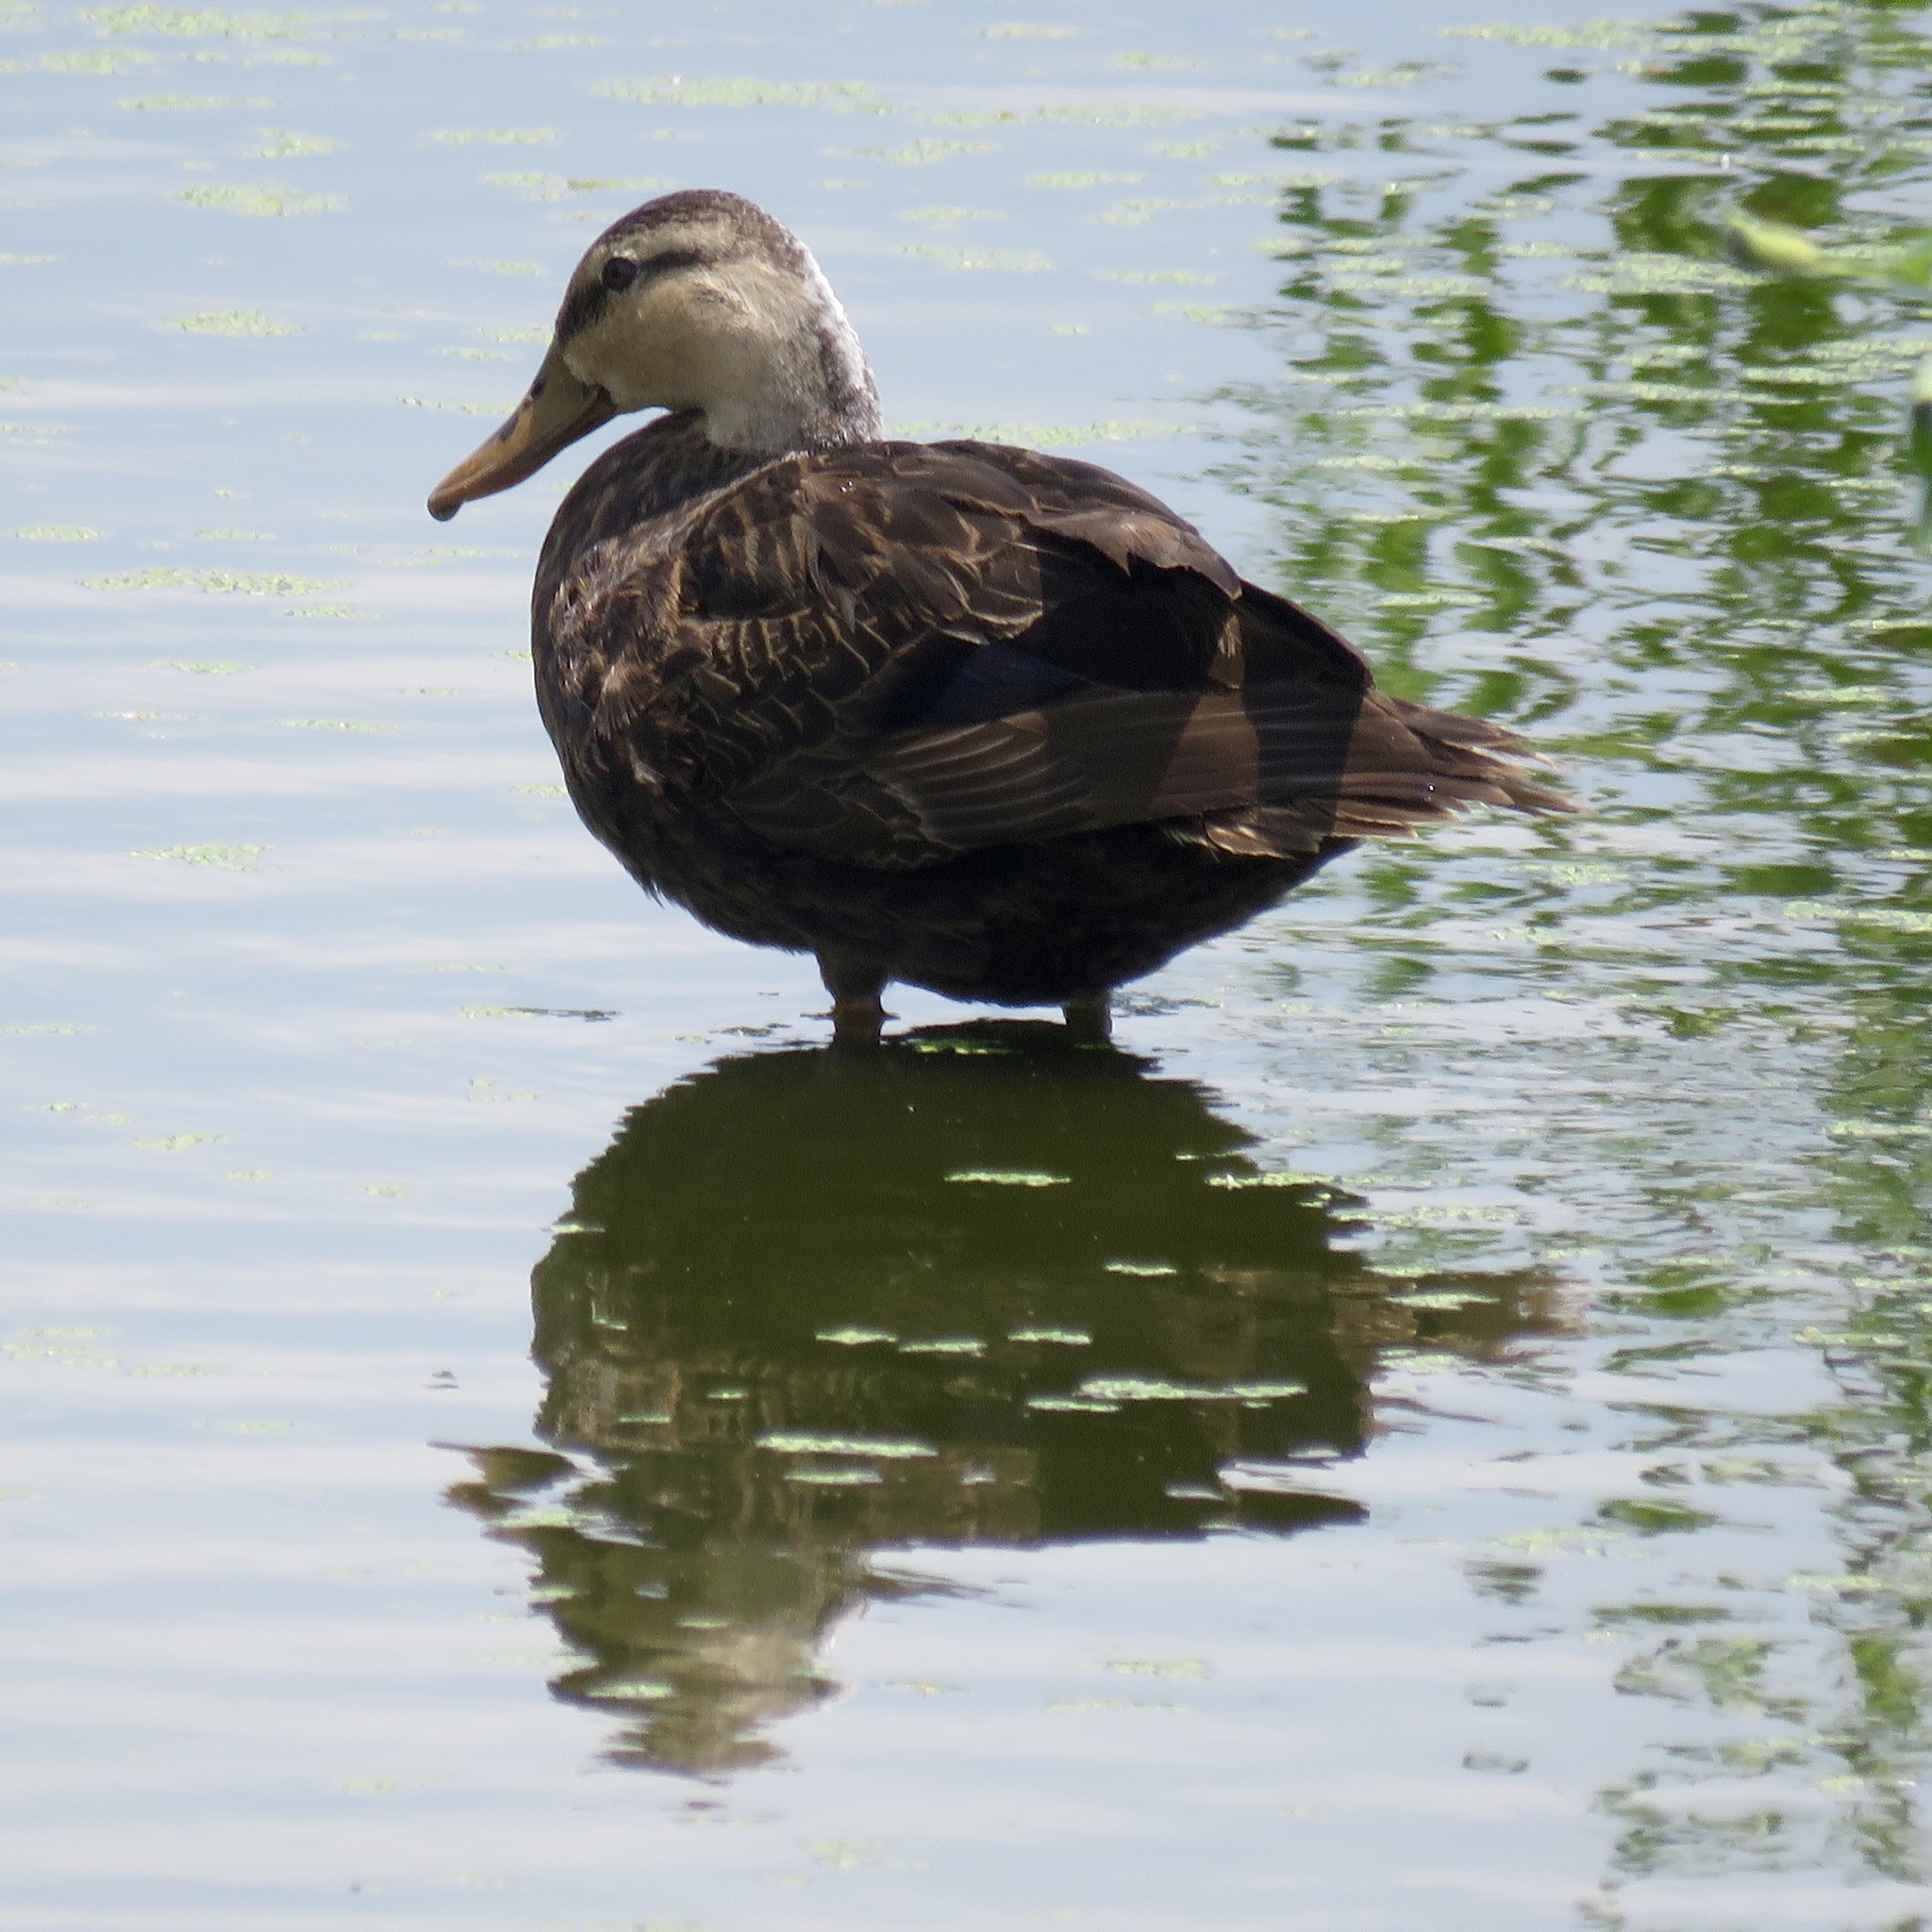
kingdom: Animalia
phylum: Chordata
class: Aves
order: Anseriformes
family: Anatidae
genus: Anas
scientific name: Anas fulvigula
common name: Mottled duck
